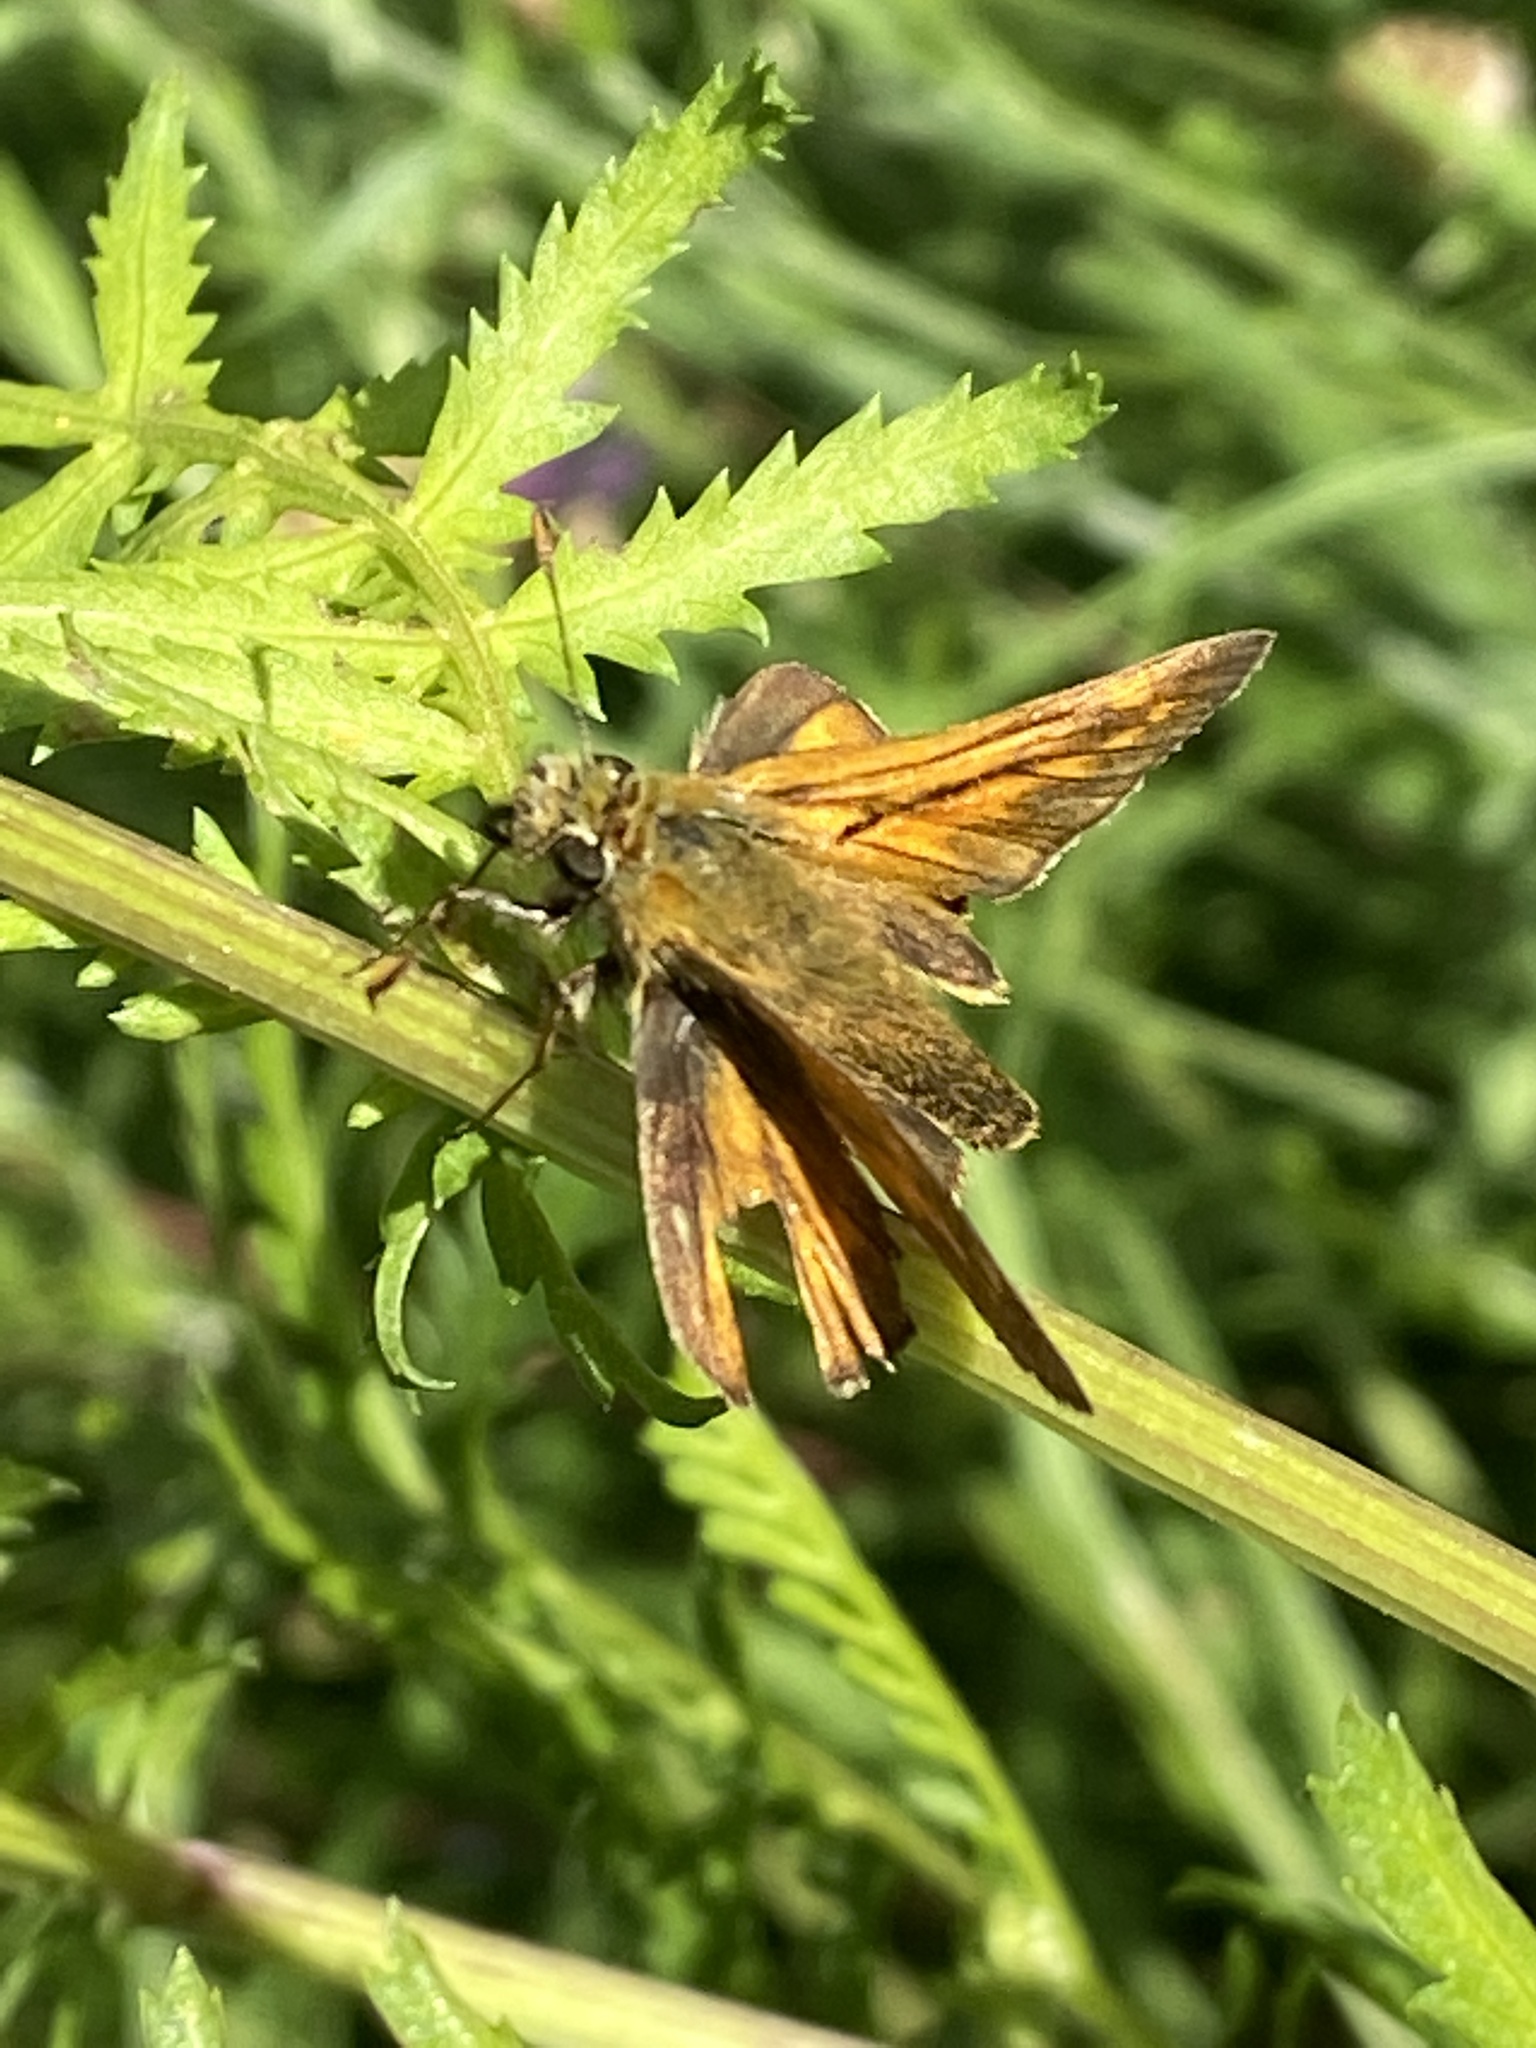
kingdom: Animalia
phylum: Arthropoda
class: Insecta
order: Lepidoptera
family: Hesperiidae
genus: Ochlodes
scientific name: Ochlodes venata
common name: Large skipper
